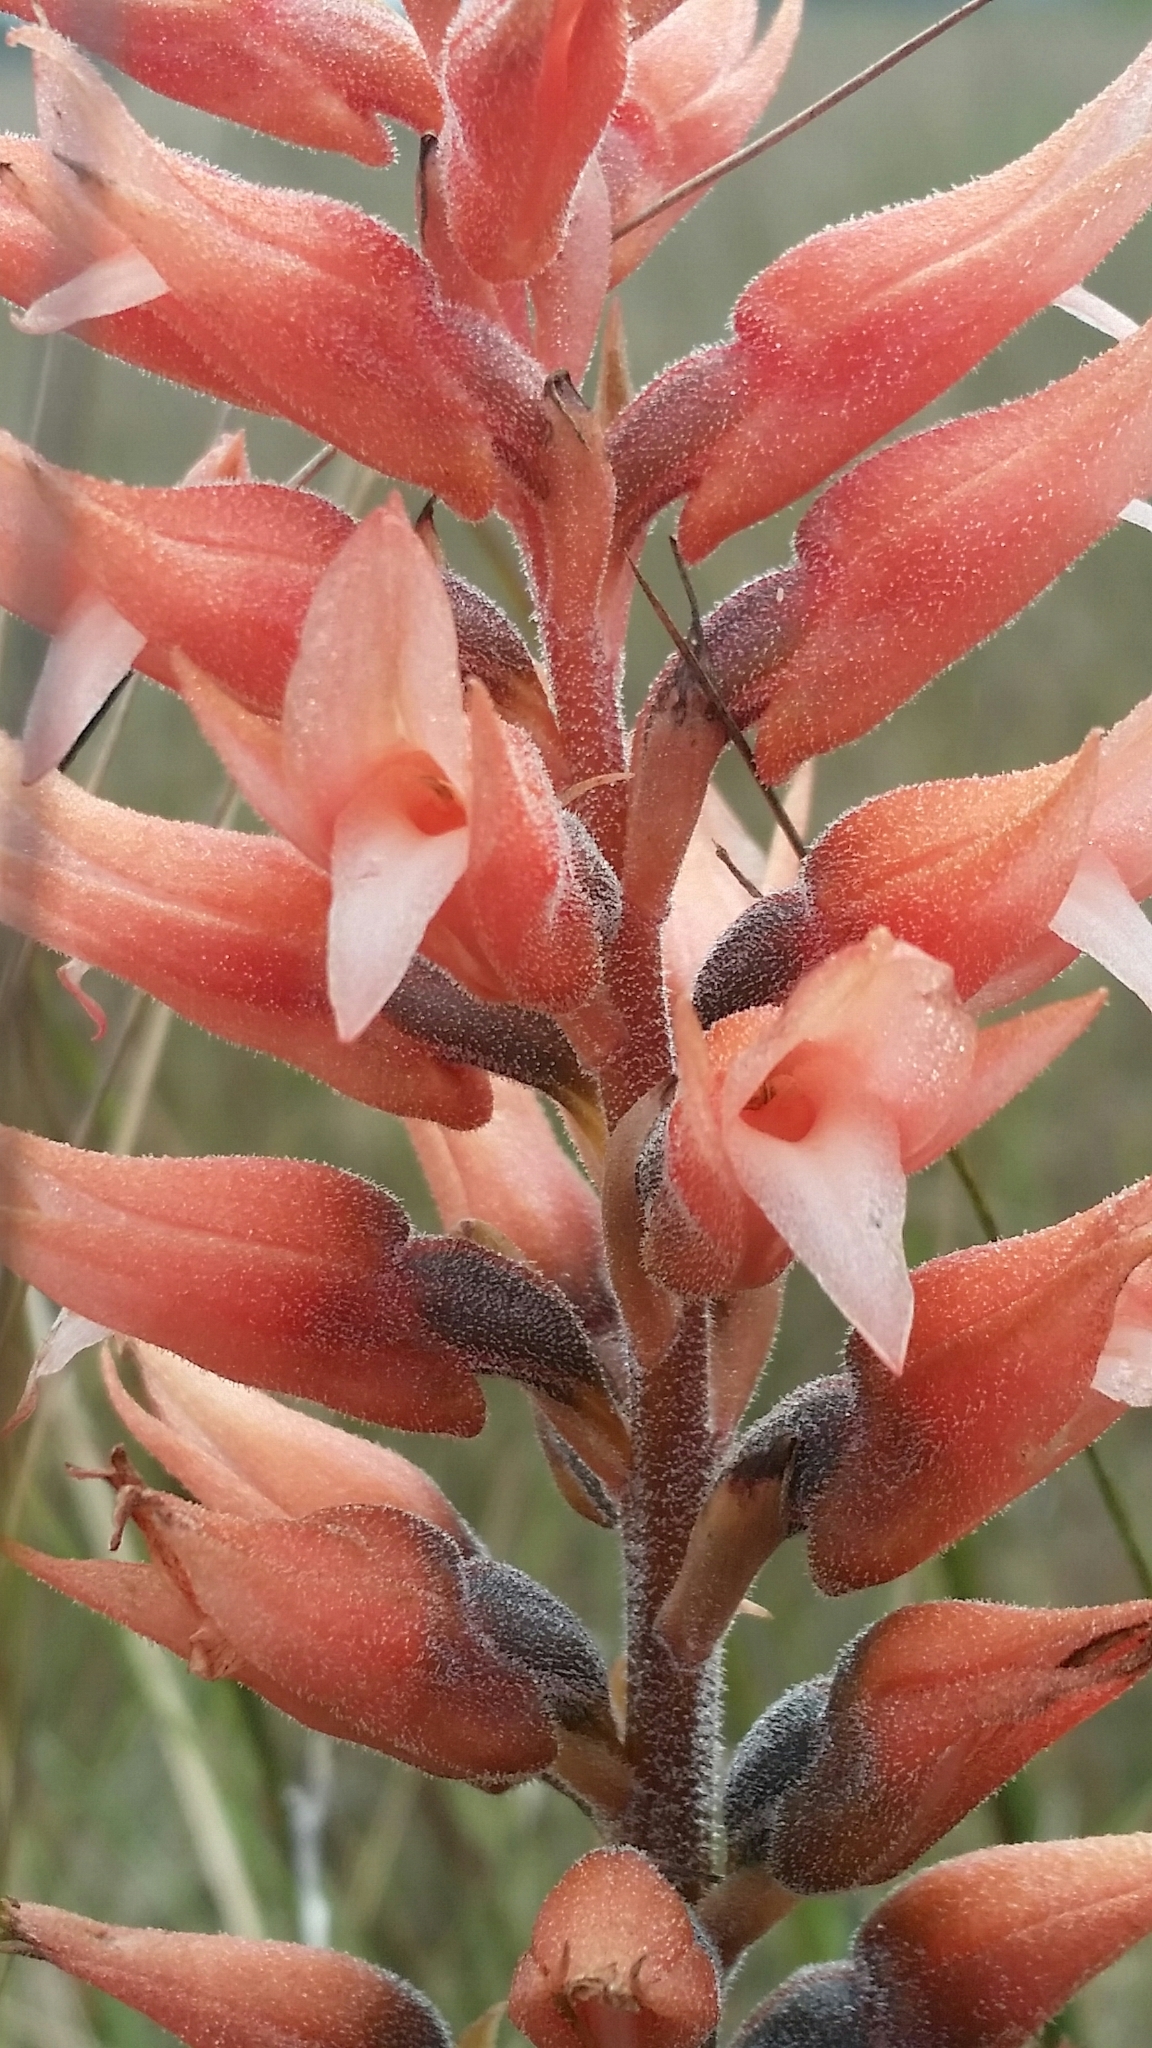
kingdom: Plantae
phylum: Tracheophyta
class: Liliopsida
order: Asparagales
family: Orchidaceae
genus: Sacoila
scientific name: Sacoila lanceolata
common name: Leafless beaked ladiestresses
